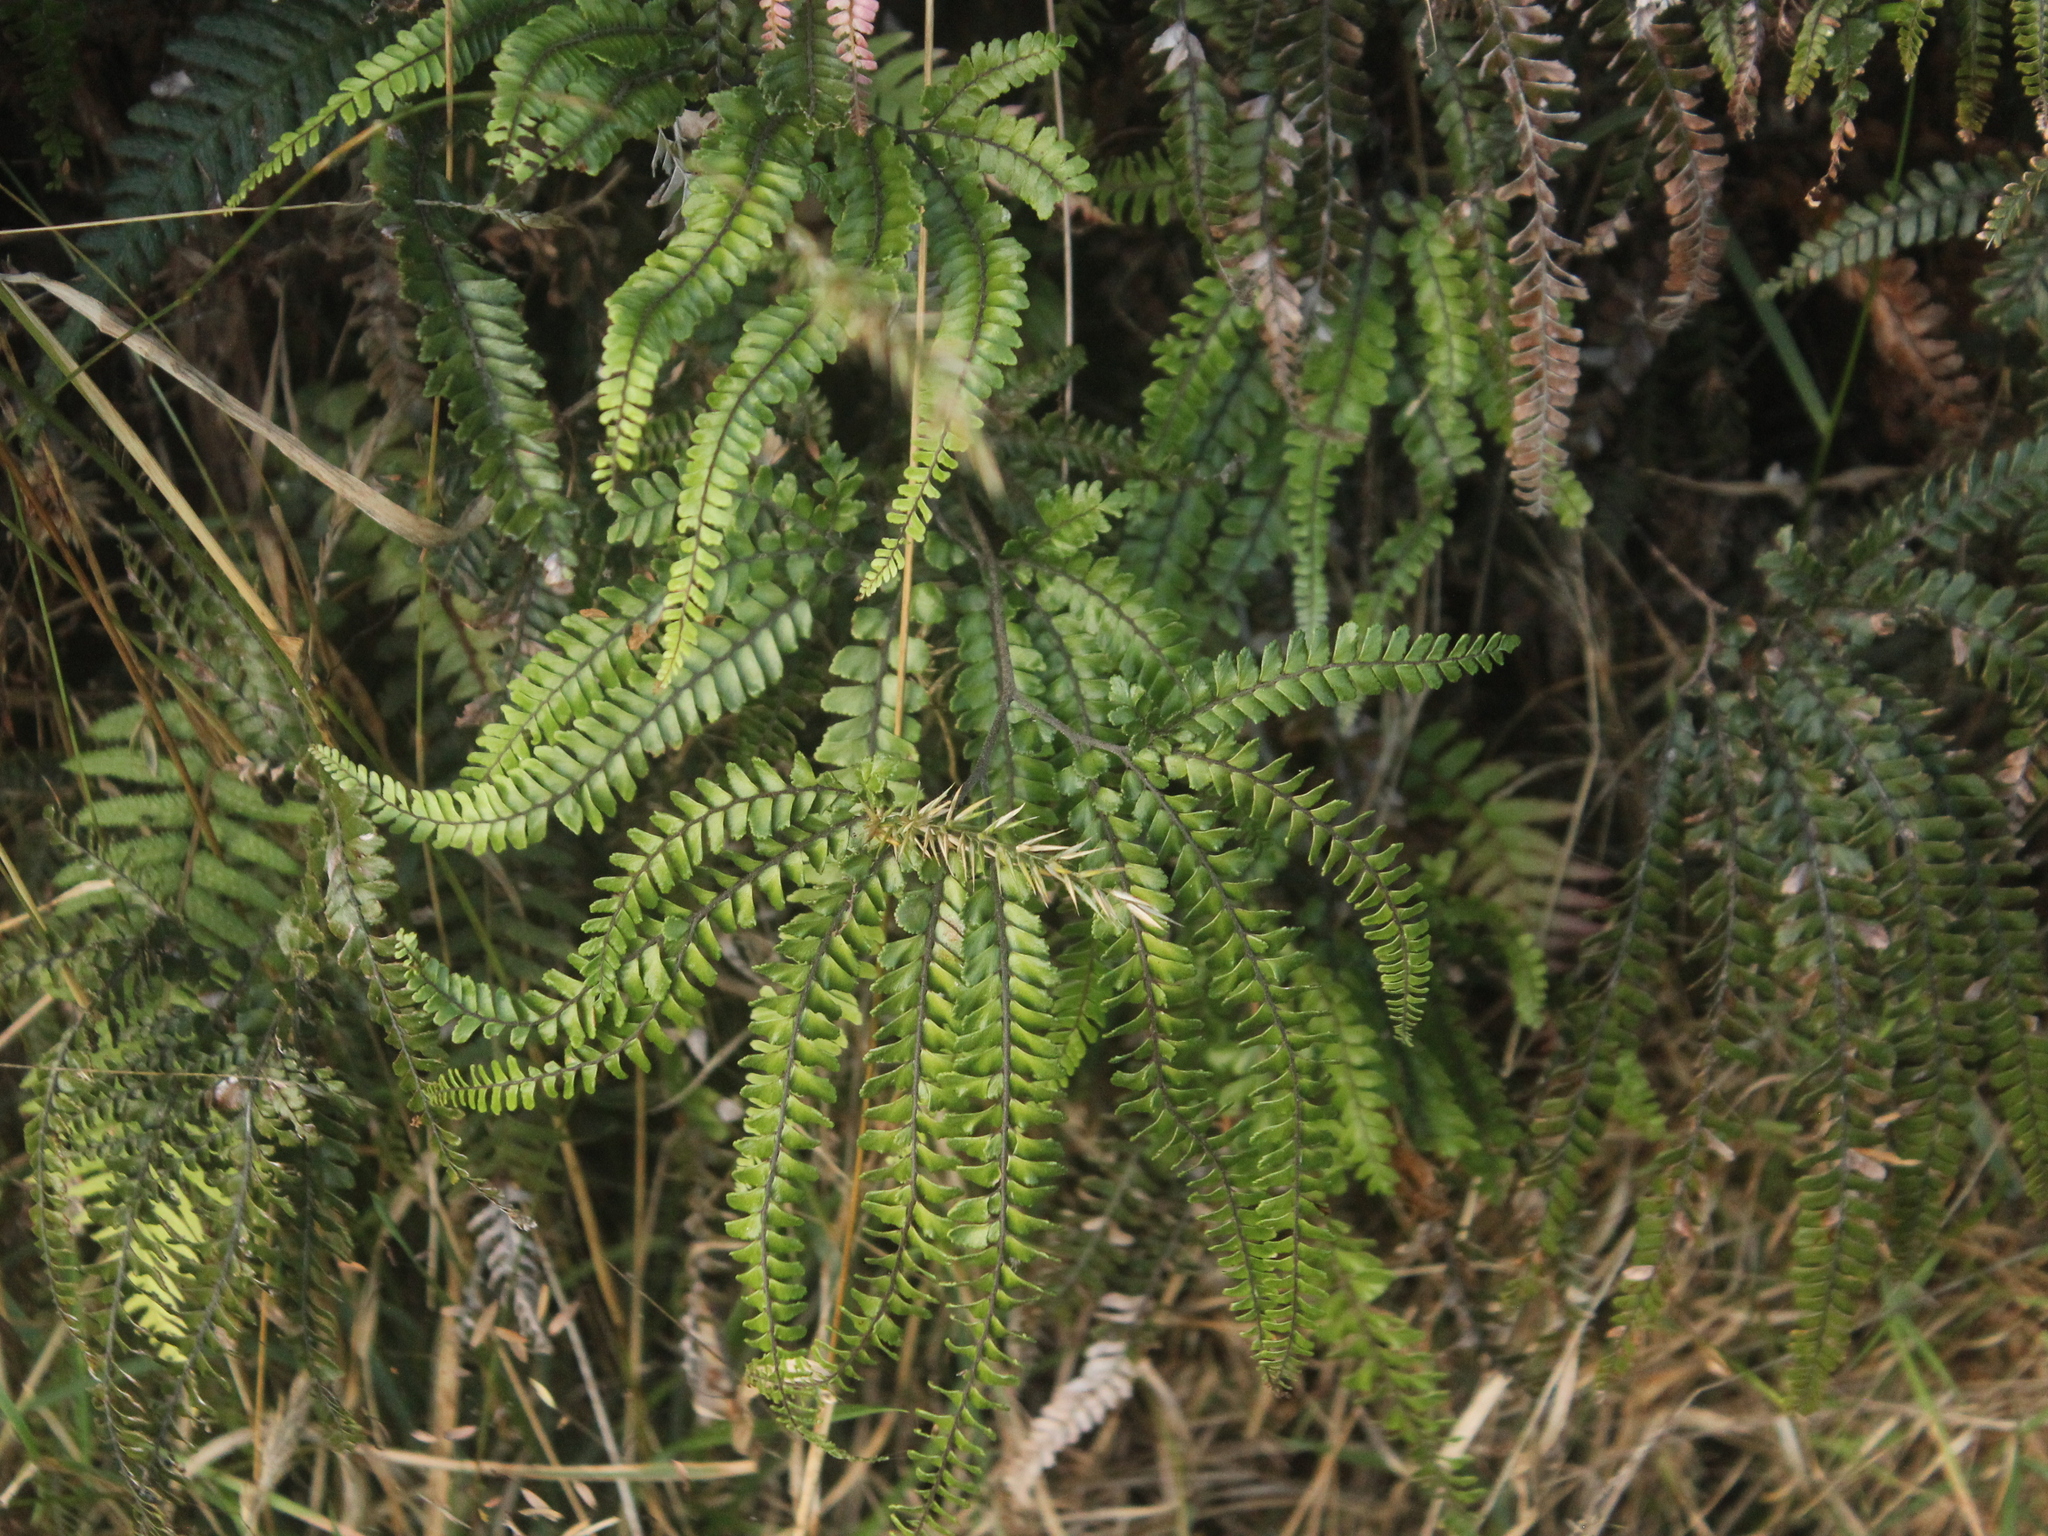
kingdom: Plantae
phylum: Tracheophyta
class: Polypodiopsida
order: Polypodiales
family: Pteridaceae
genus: Adiantum
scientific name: Adiantum hispidulum
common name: Rough maidenhair
